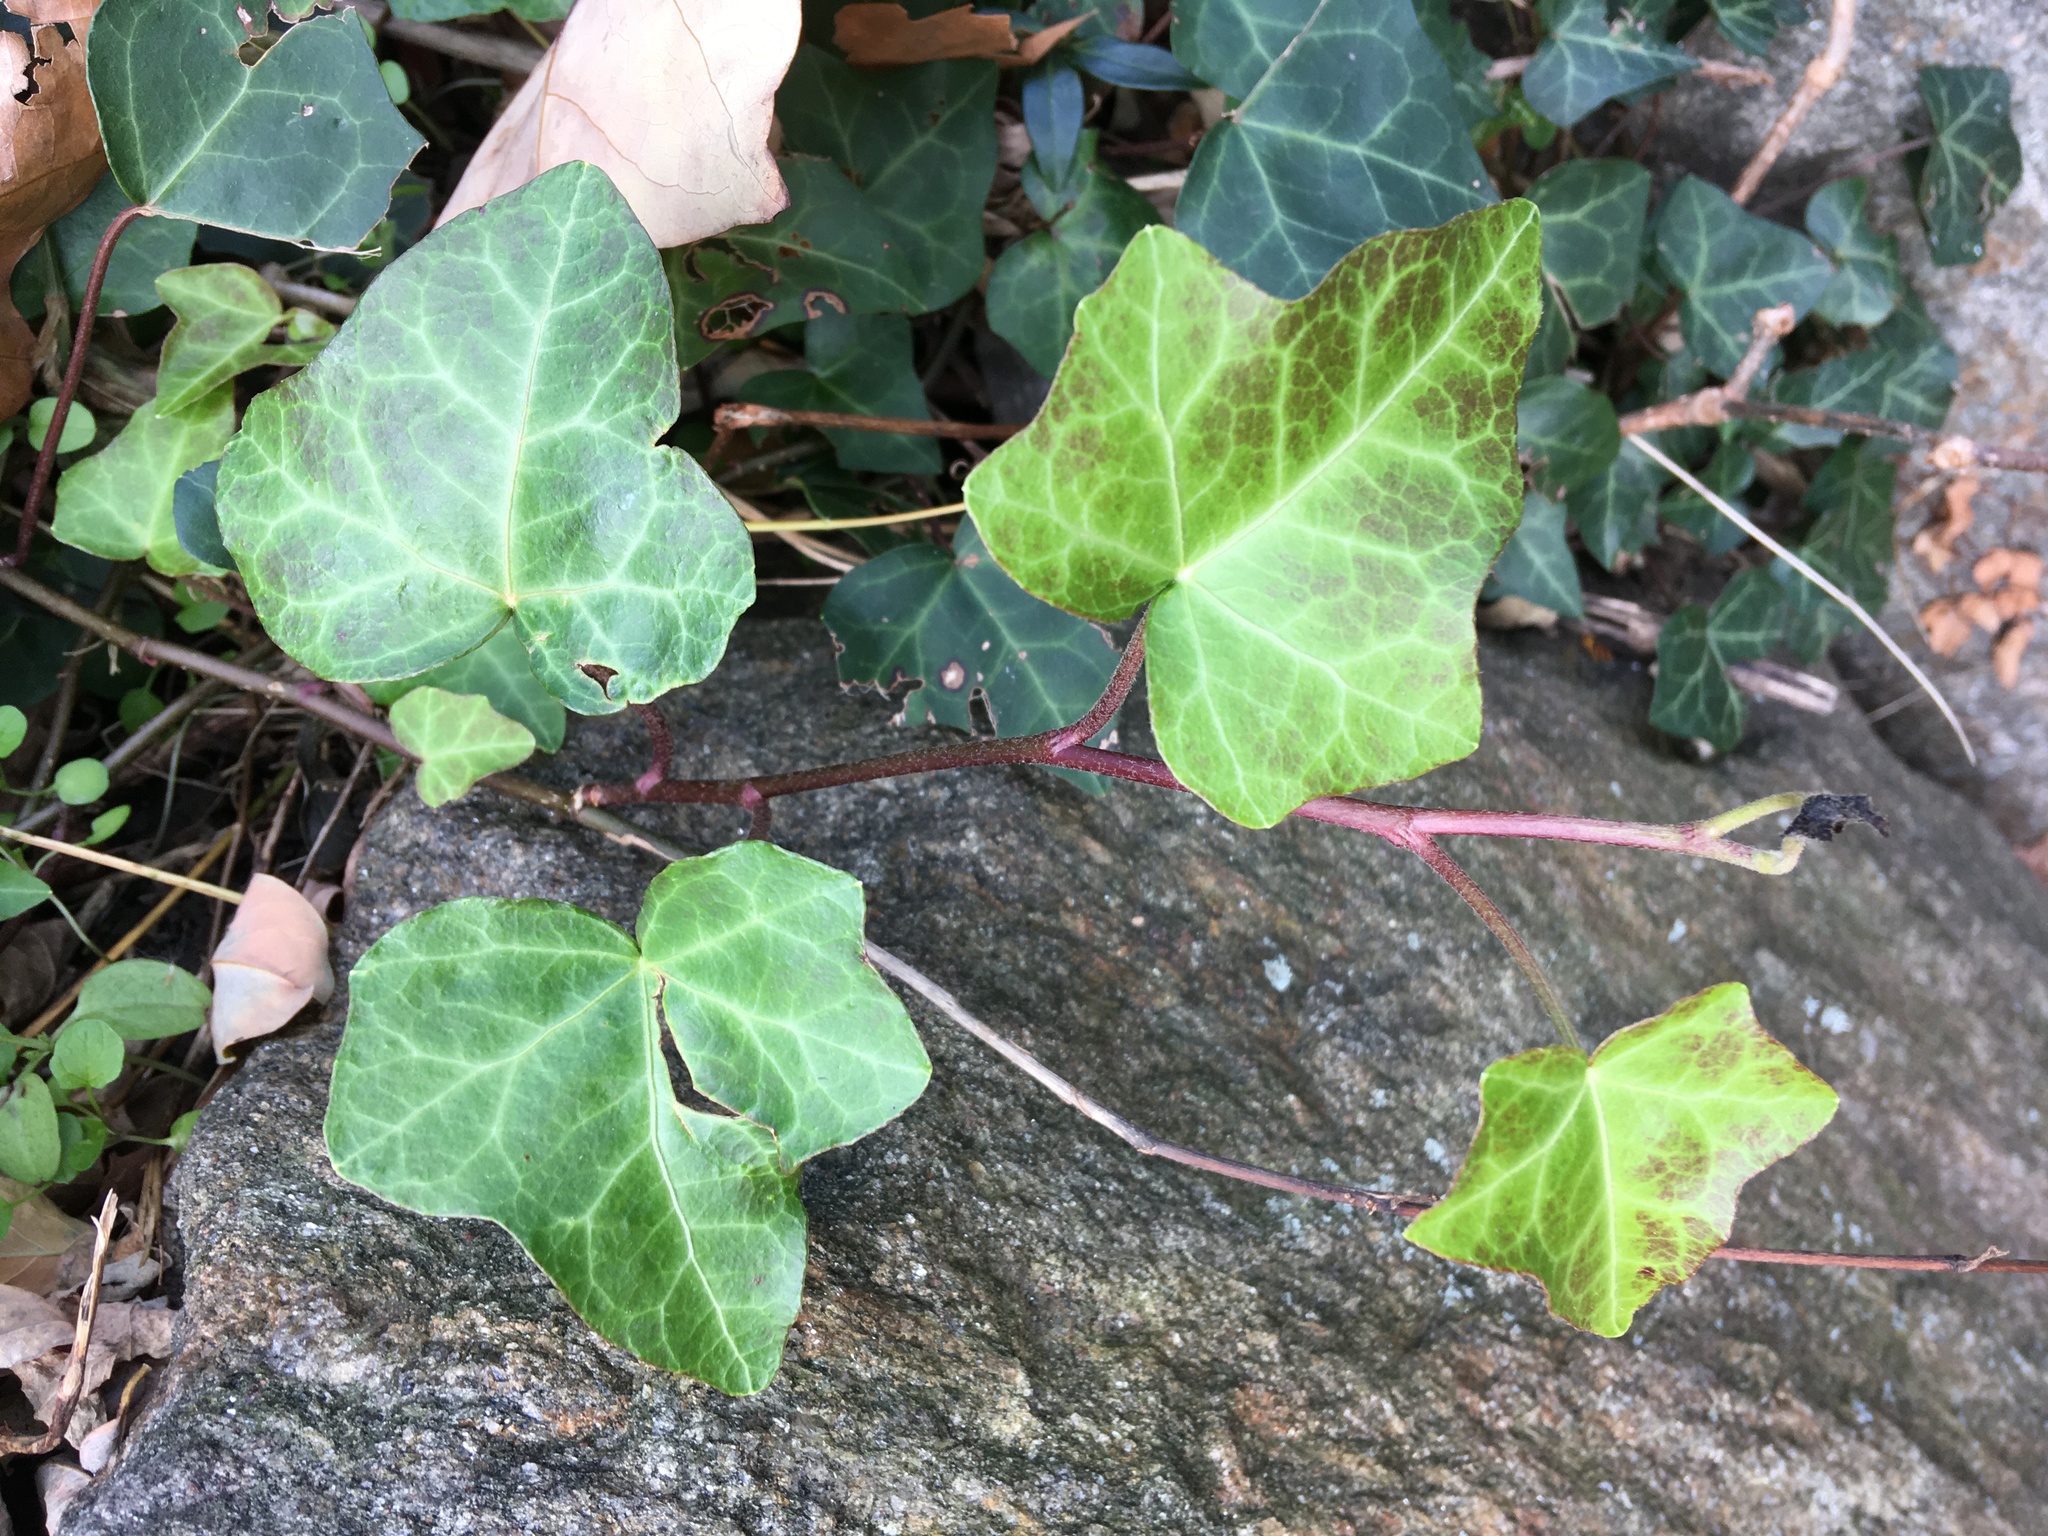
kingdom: Plantae
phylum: Tracheophyta
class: Magnoliopsida
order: Apiales
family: Araliaceae
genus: Hedera
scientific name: Hedera helix
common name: Ivy
